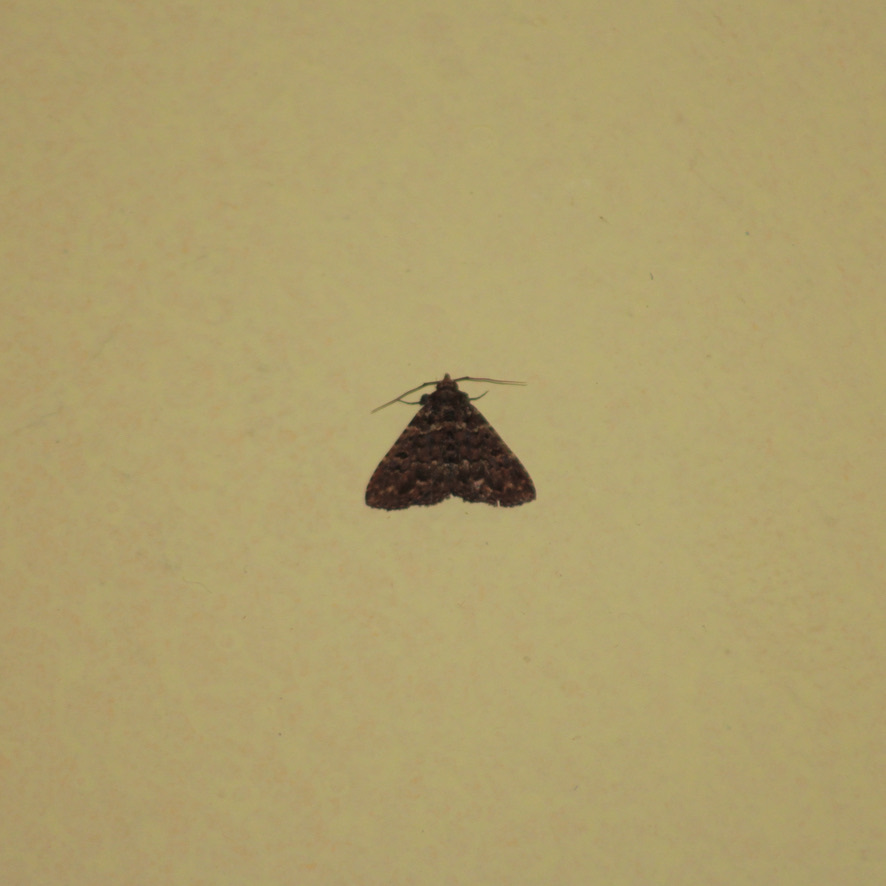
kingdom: Animalia
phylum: Arthropoda
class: Insecta
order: Lepidoptera
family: Erebidae
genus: Metalectra
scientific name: Metalectra safina
